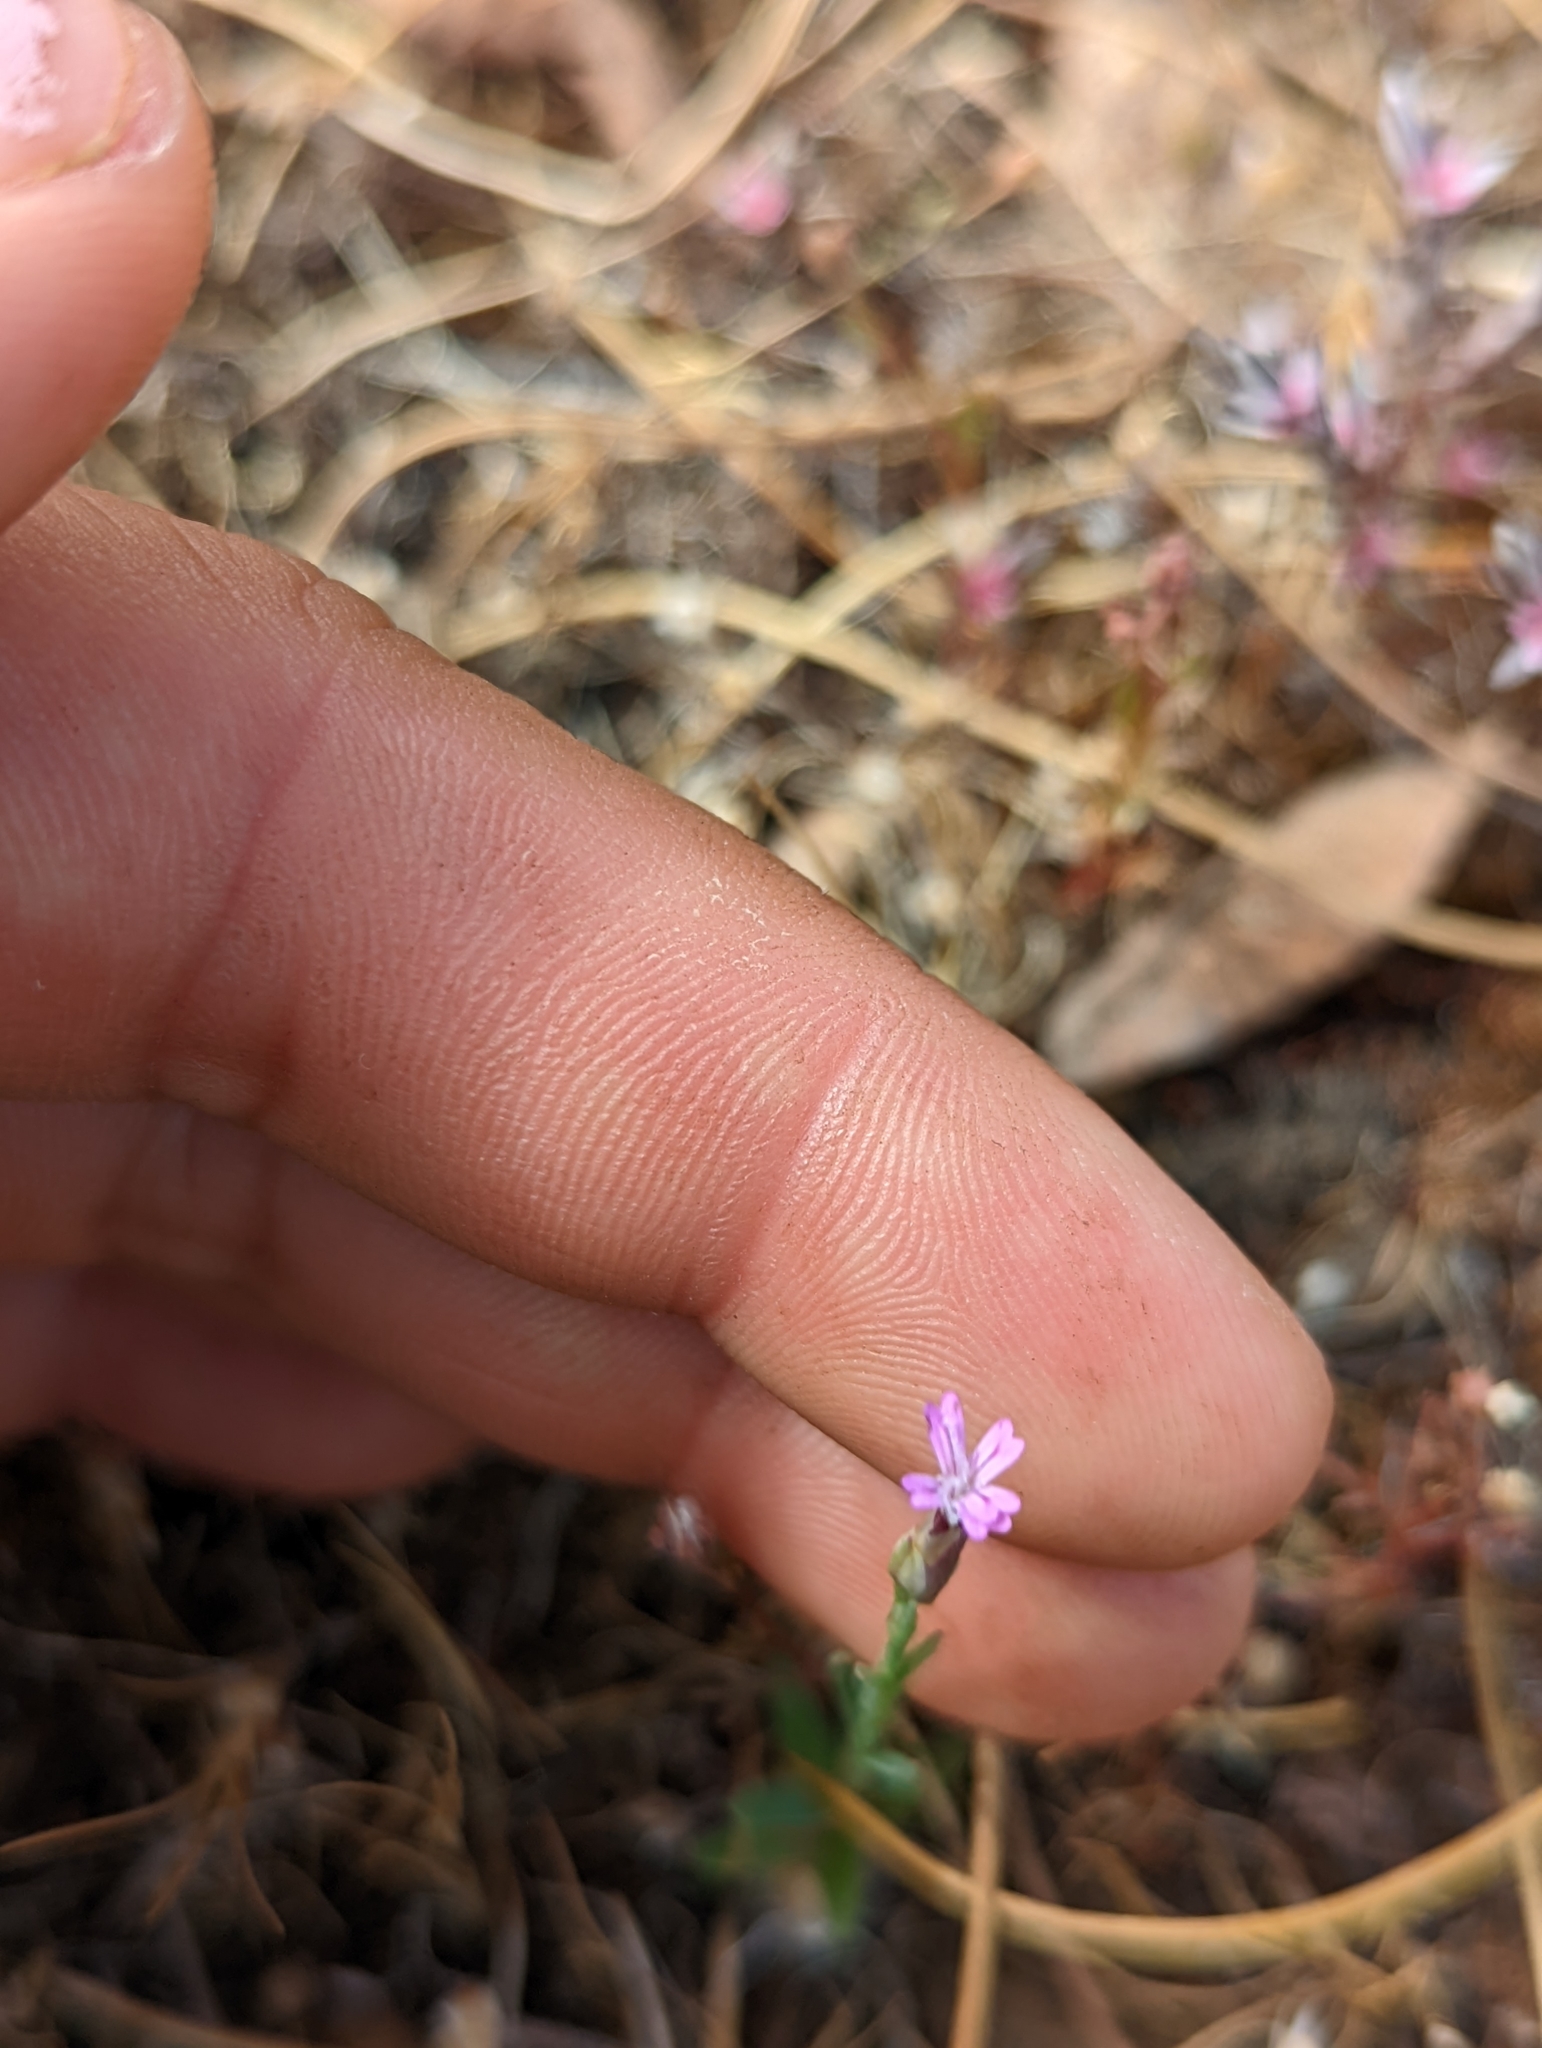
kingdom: Plantae
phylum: Tracheophyta
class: Magnoliopsida
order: Caryophyllales
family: Caryophyllaceae
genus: Petrorhagia
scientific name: Petrorhagia dubia
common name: Hairypink
